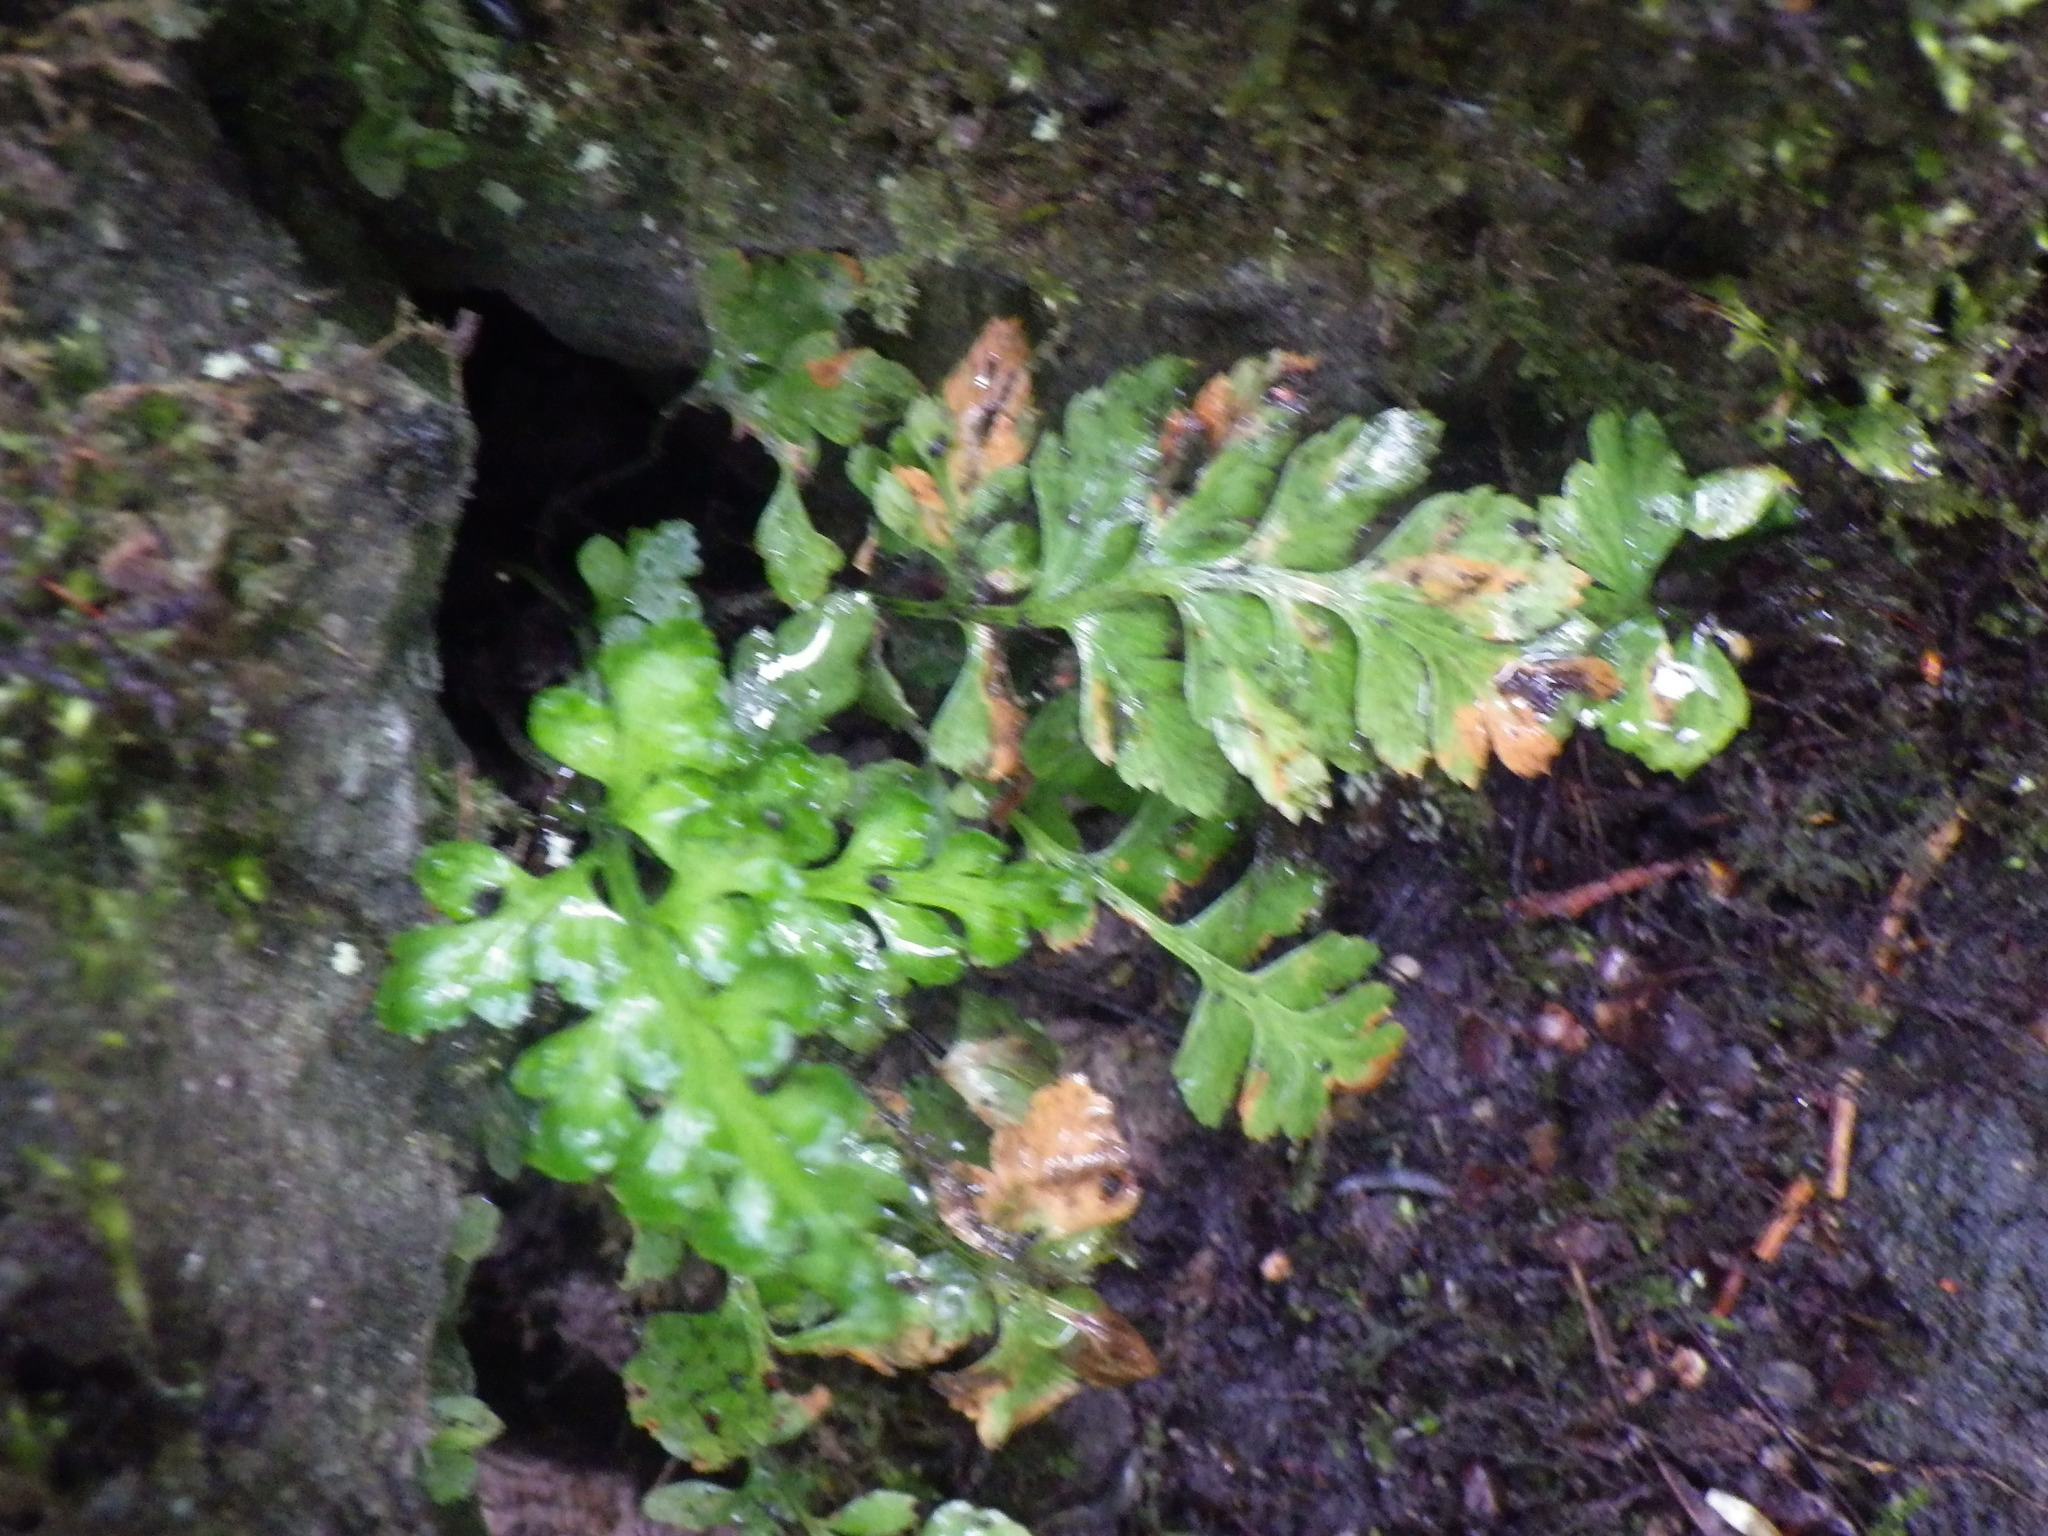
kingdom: Plantae
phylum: Tracheophyta
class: Polypodiopsida
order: Polypodiales
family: Aspleniaceae
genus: Asplenium
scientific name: Asplenium adiantum-nigrum
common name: Black spleenwort
